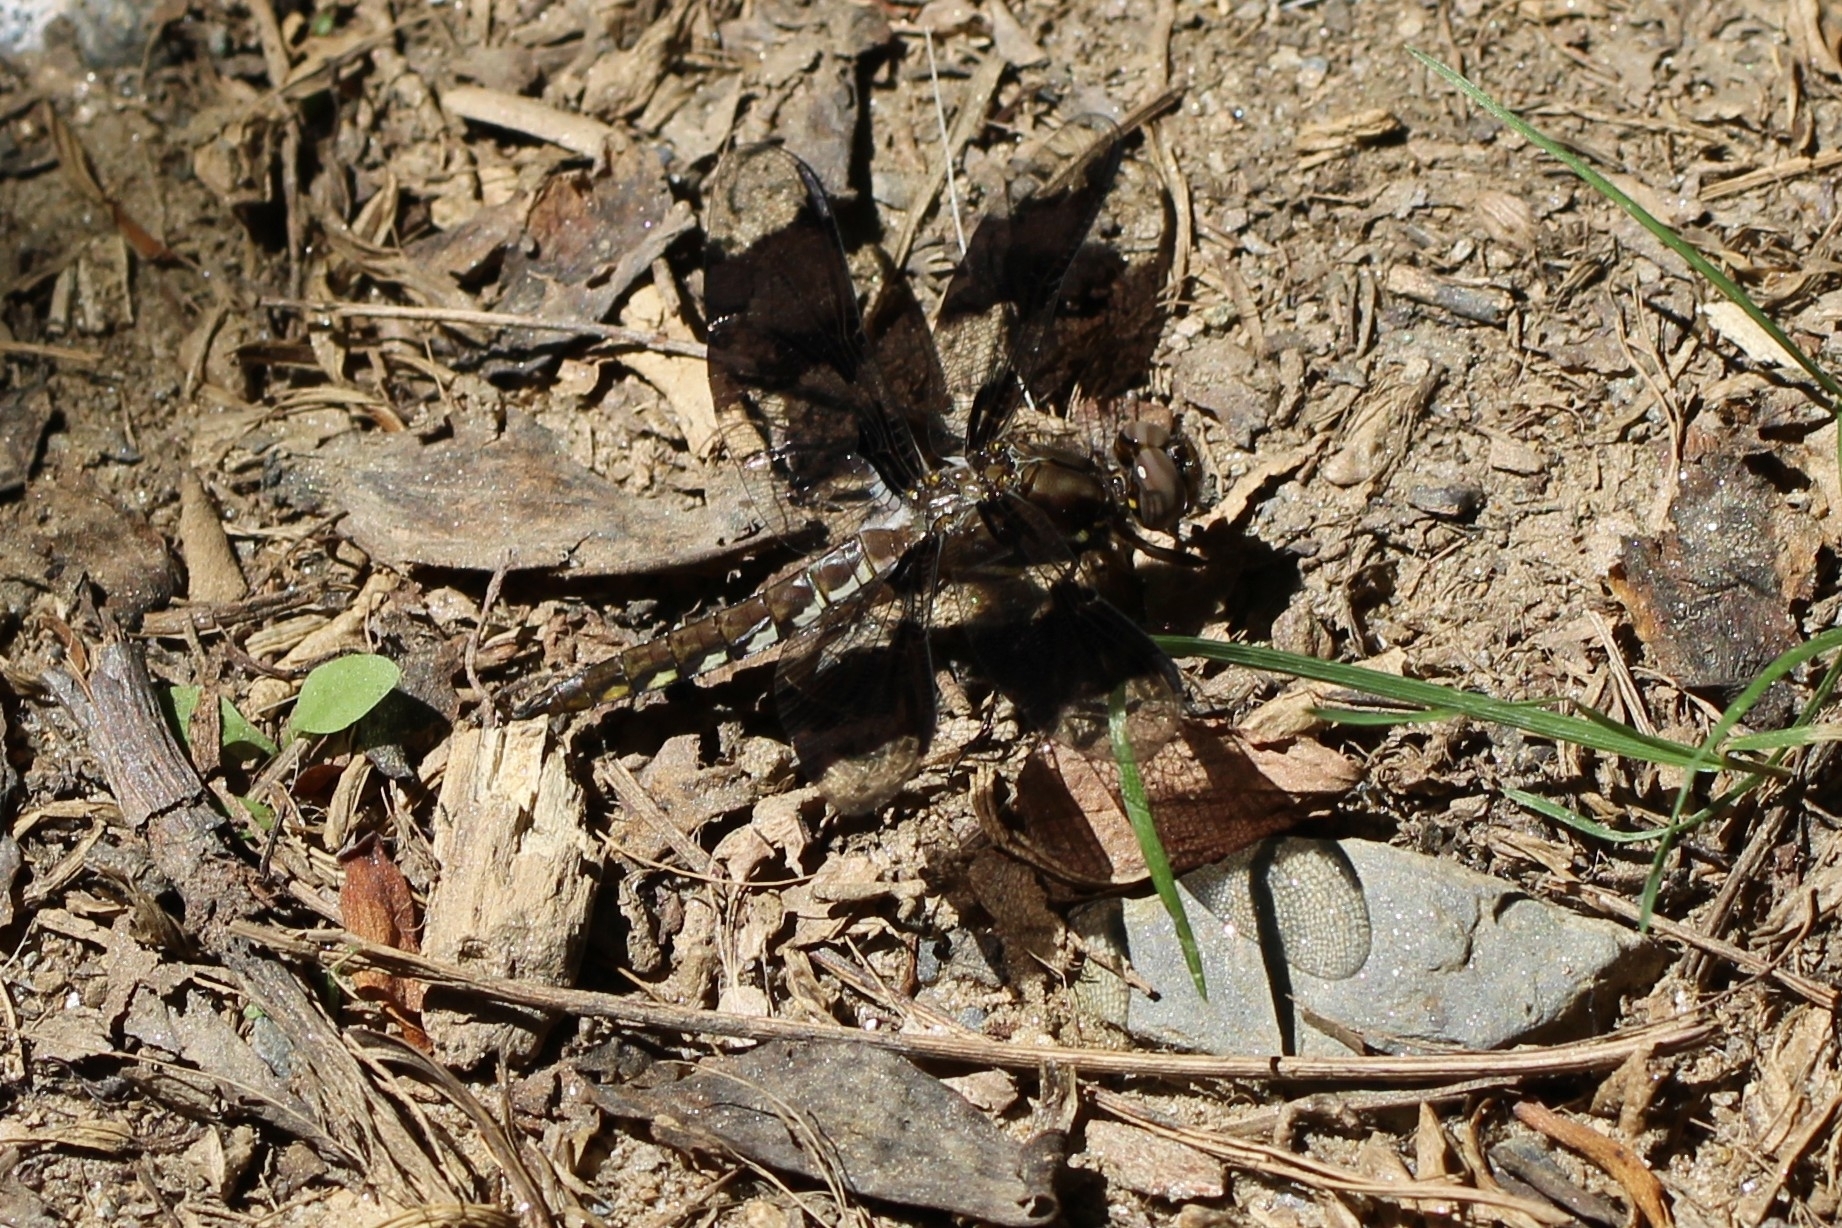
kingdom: Animalia
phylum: Arthropoda
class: Insecta
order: Odonata
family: Libellulidae
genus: Plathemis
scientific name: Plathemis lydia
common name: Common whitetail
